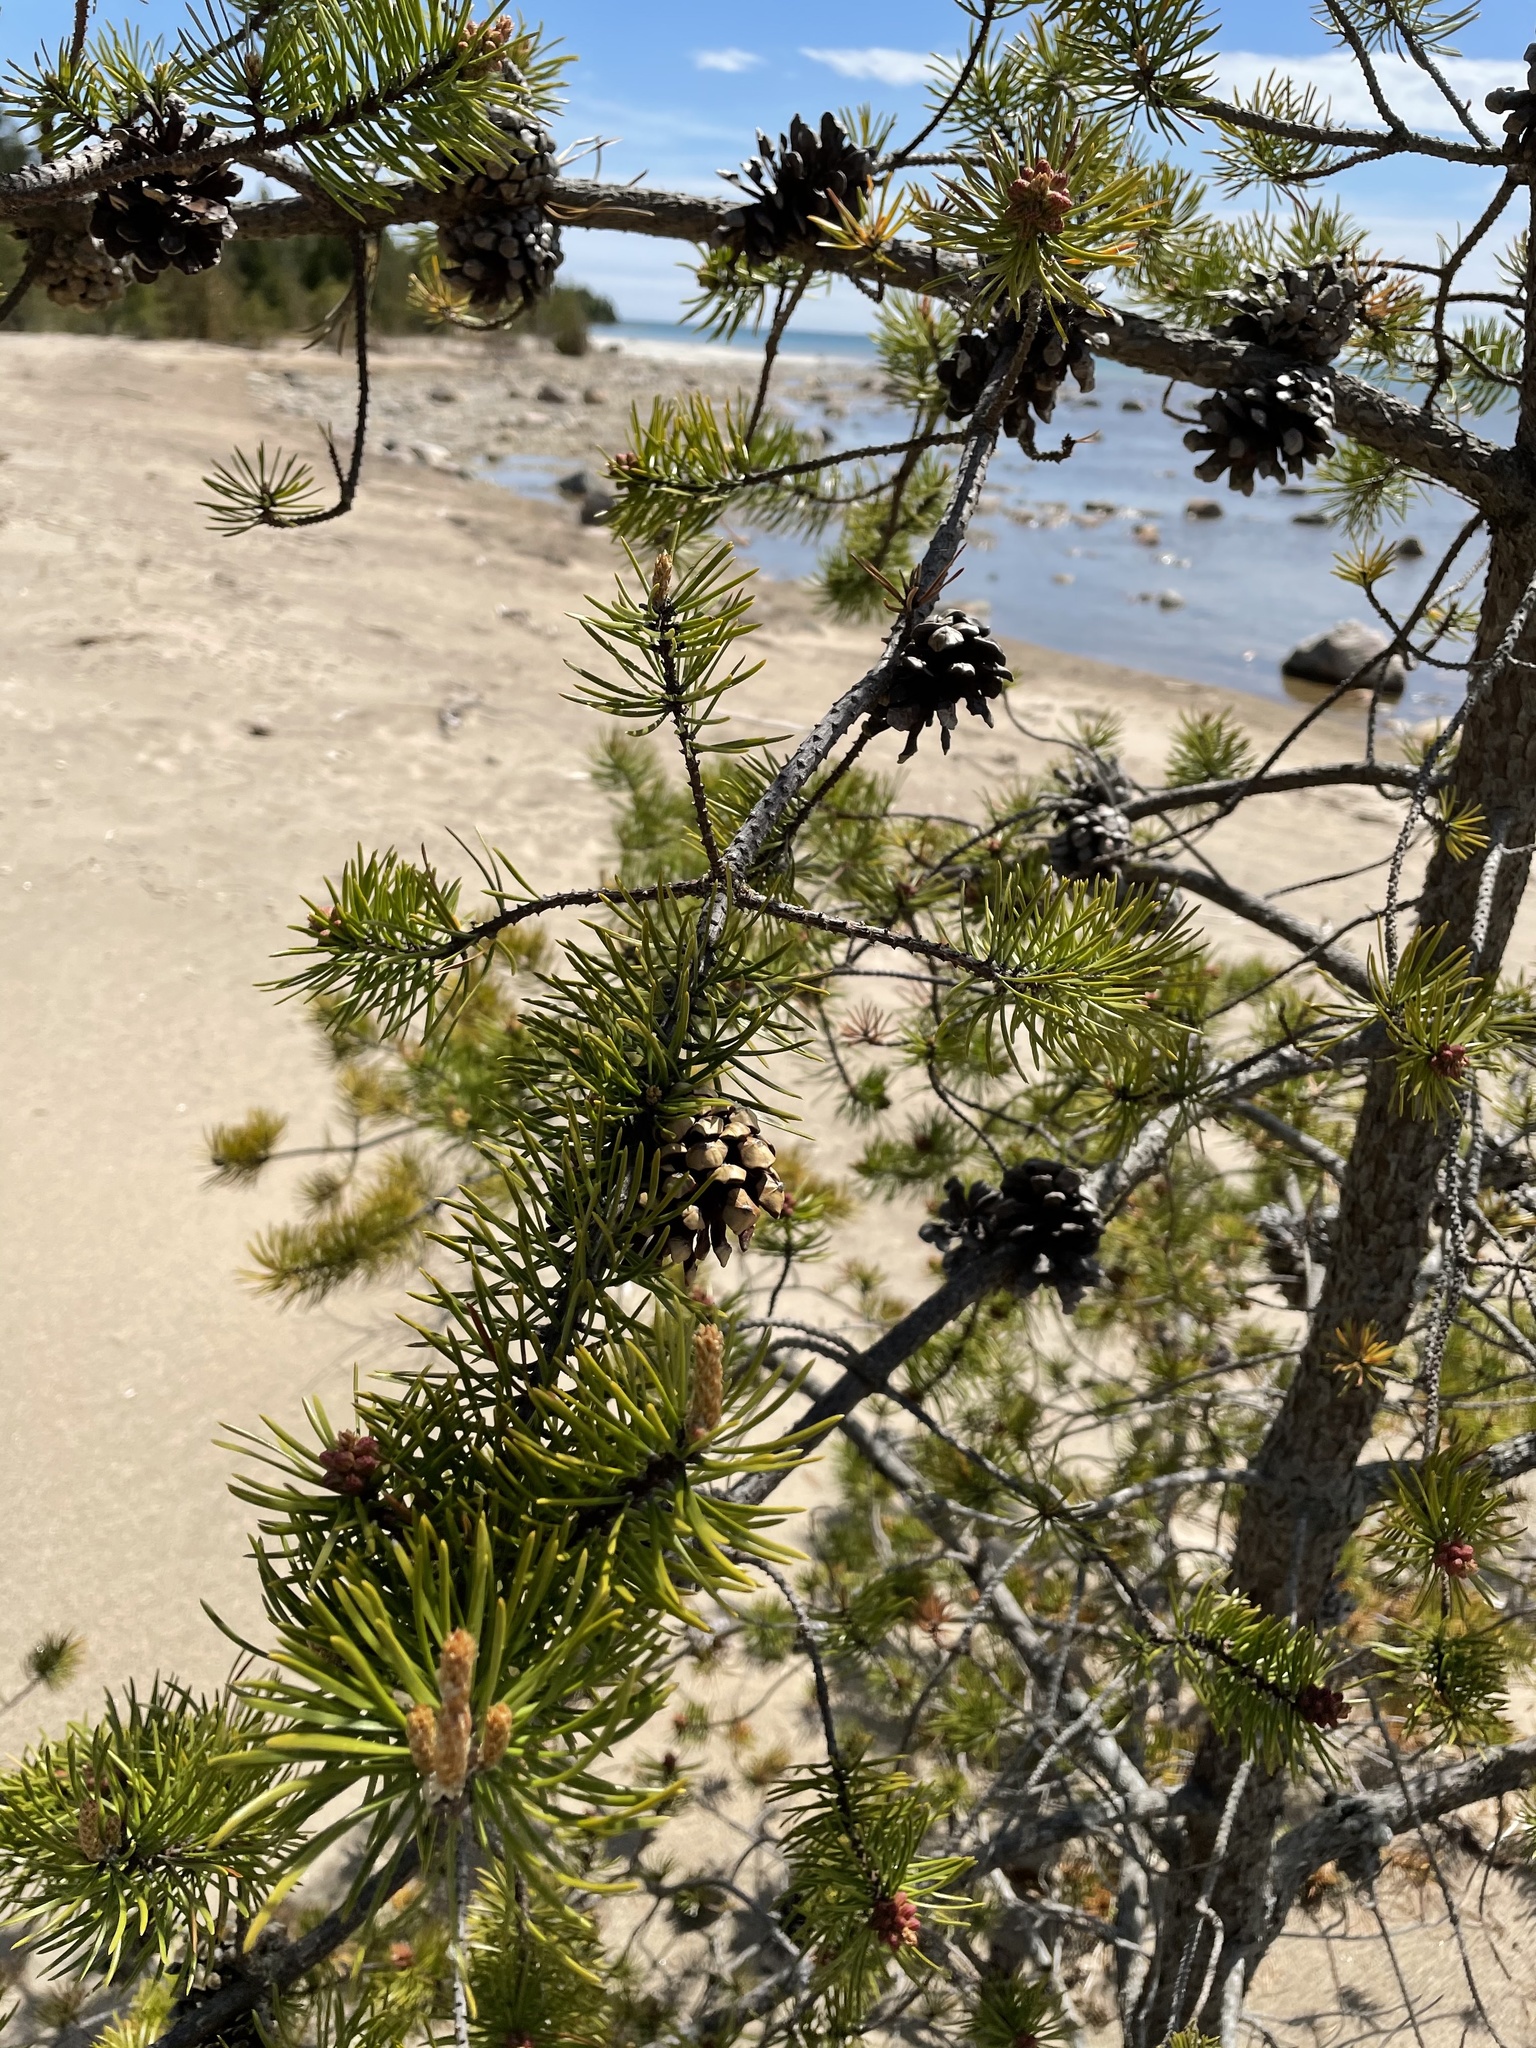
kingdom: Plantae
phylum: Tracheophyta
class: Pinopsida
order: Pinales
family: Pinaceae
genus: Pinus
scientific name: Pinus banksiana
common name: Jack pine
